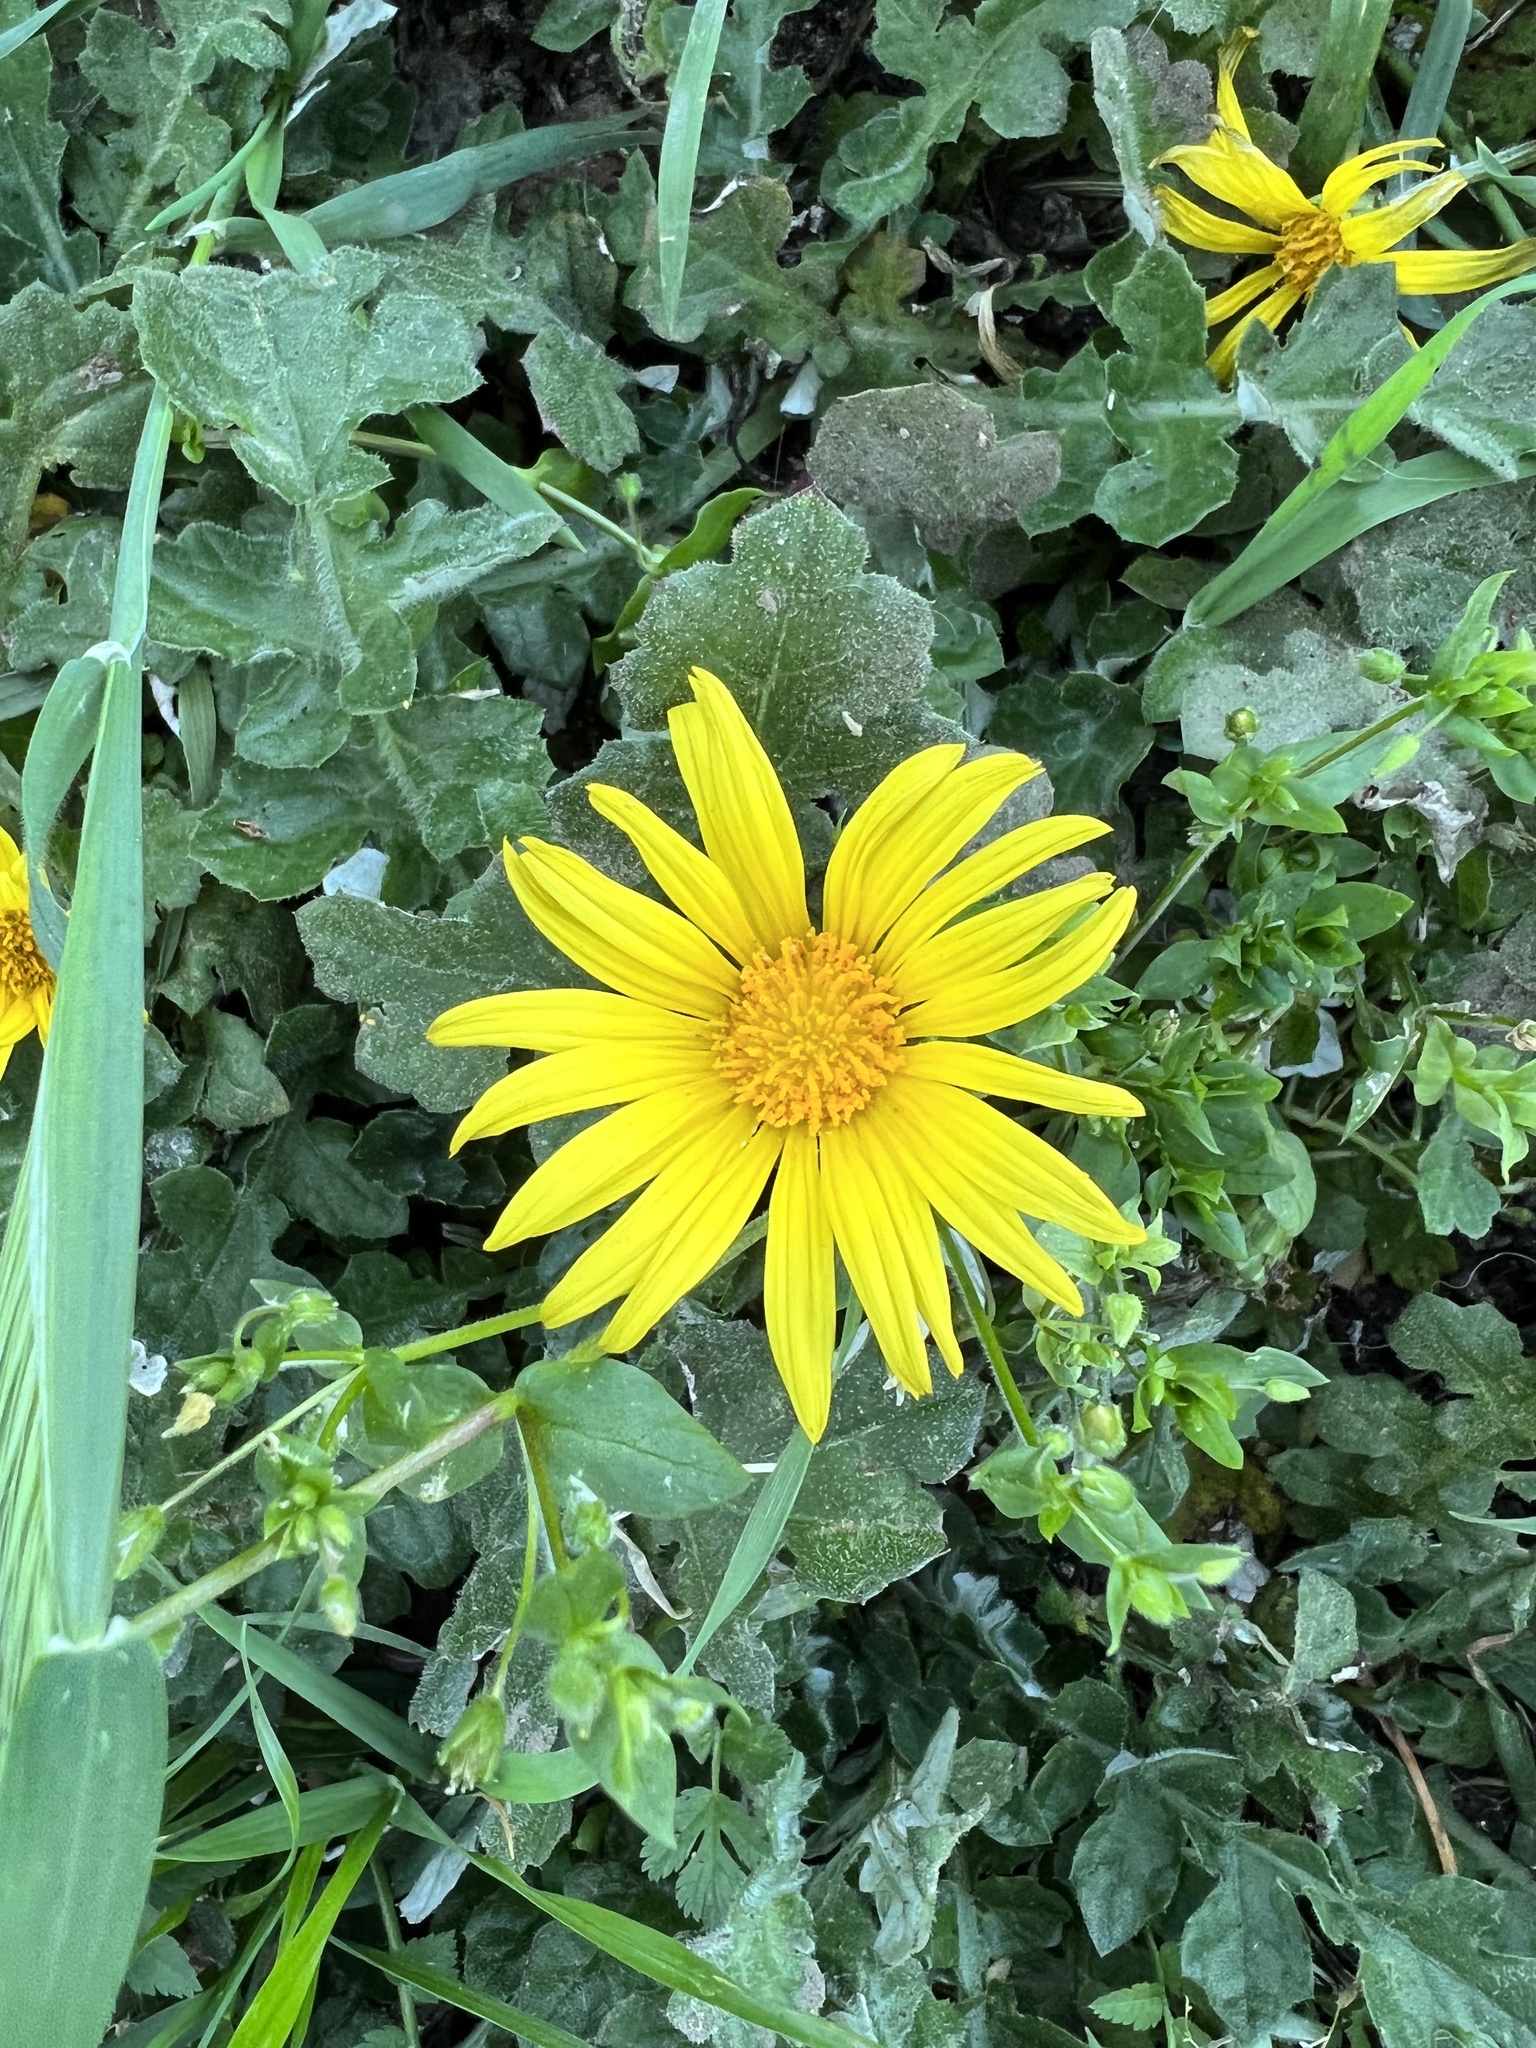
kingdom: Plantae
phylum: Tracheophyta
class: Magnoliopsida
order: Asterales
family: Asteraceae
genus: Arctotheca
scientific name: Arctotheca prostrata
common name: Capeweed
